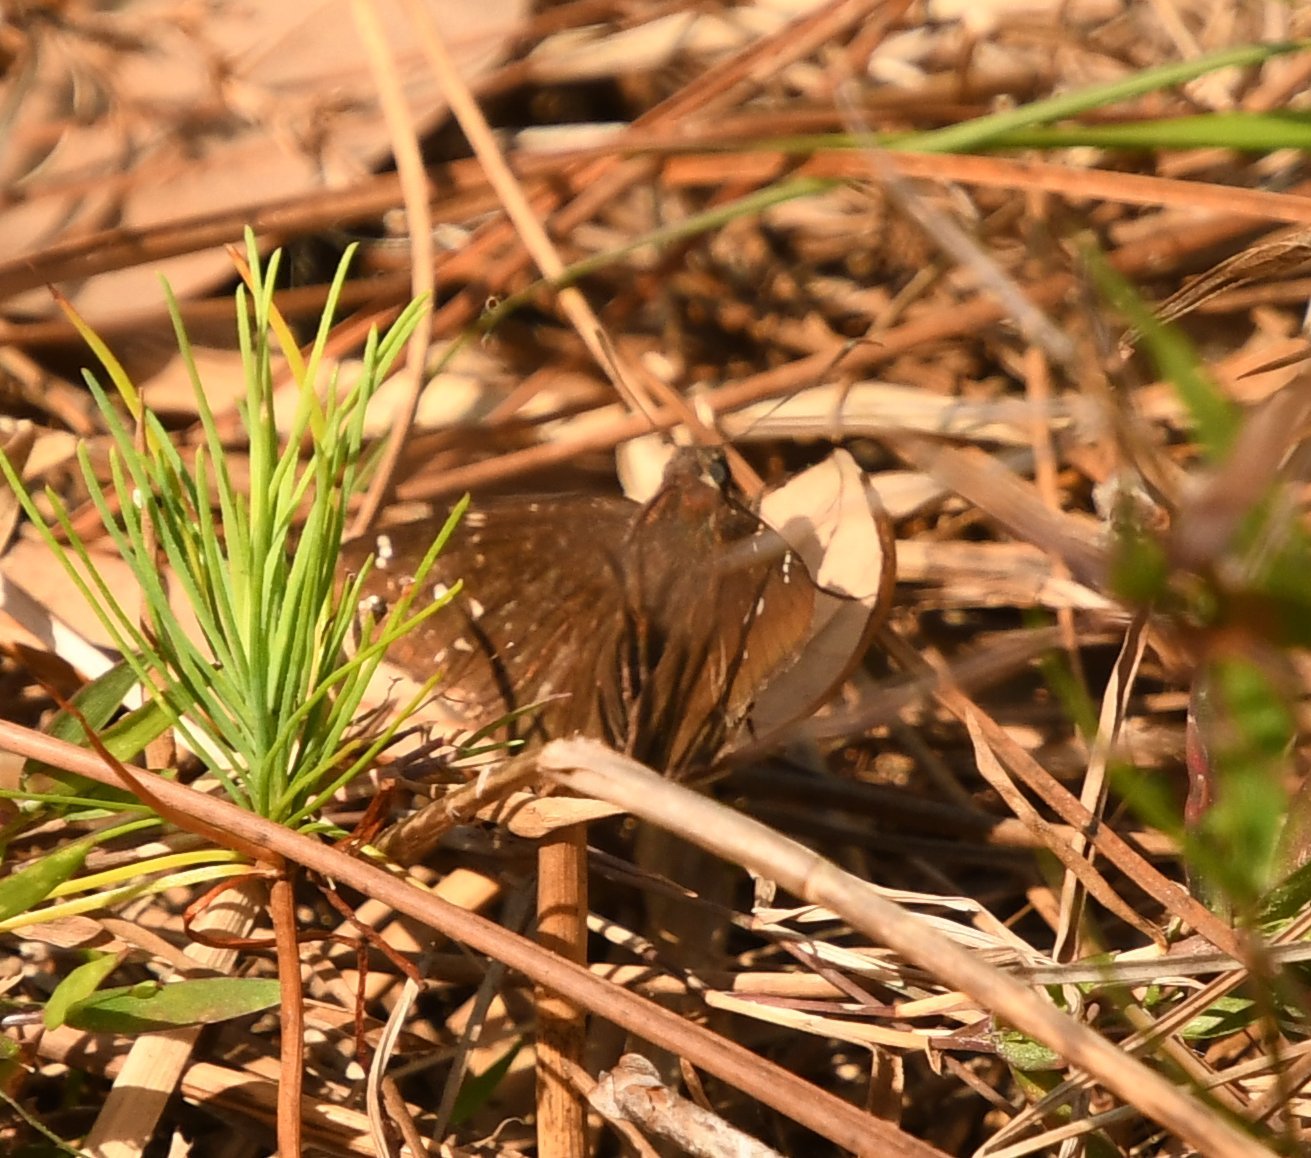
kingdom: Animalia
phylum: Arthropoda
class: Insecta
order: Lepidoptera
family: Hesperiidae
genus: Thorybes
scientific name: Thorybes mexicana
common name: Mexican cloudywing
